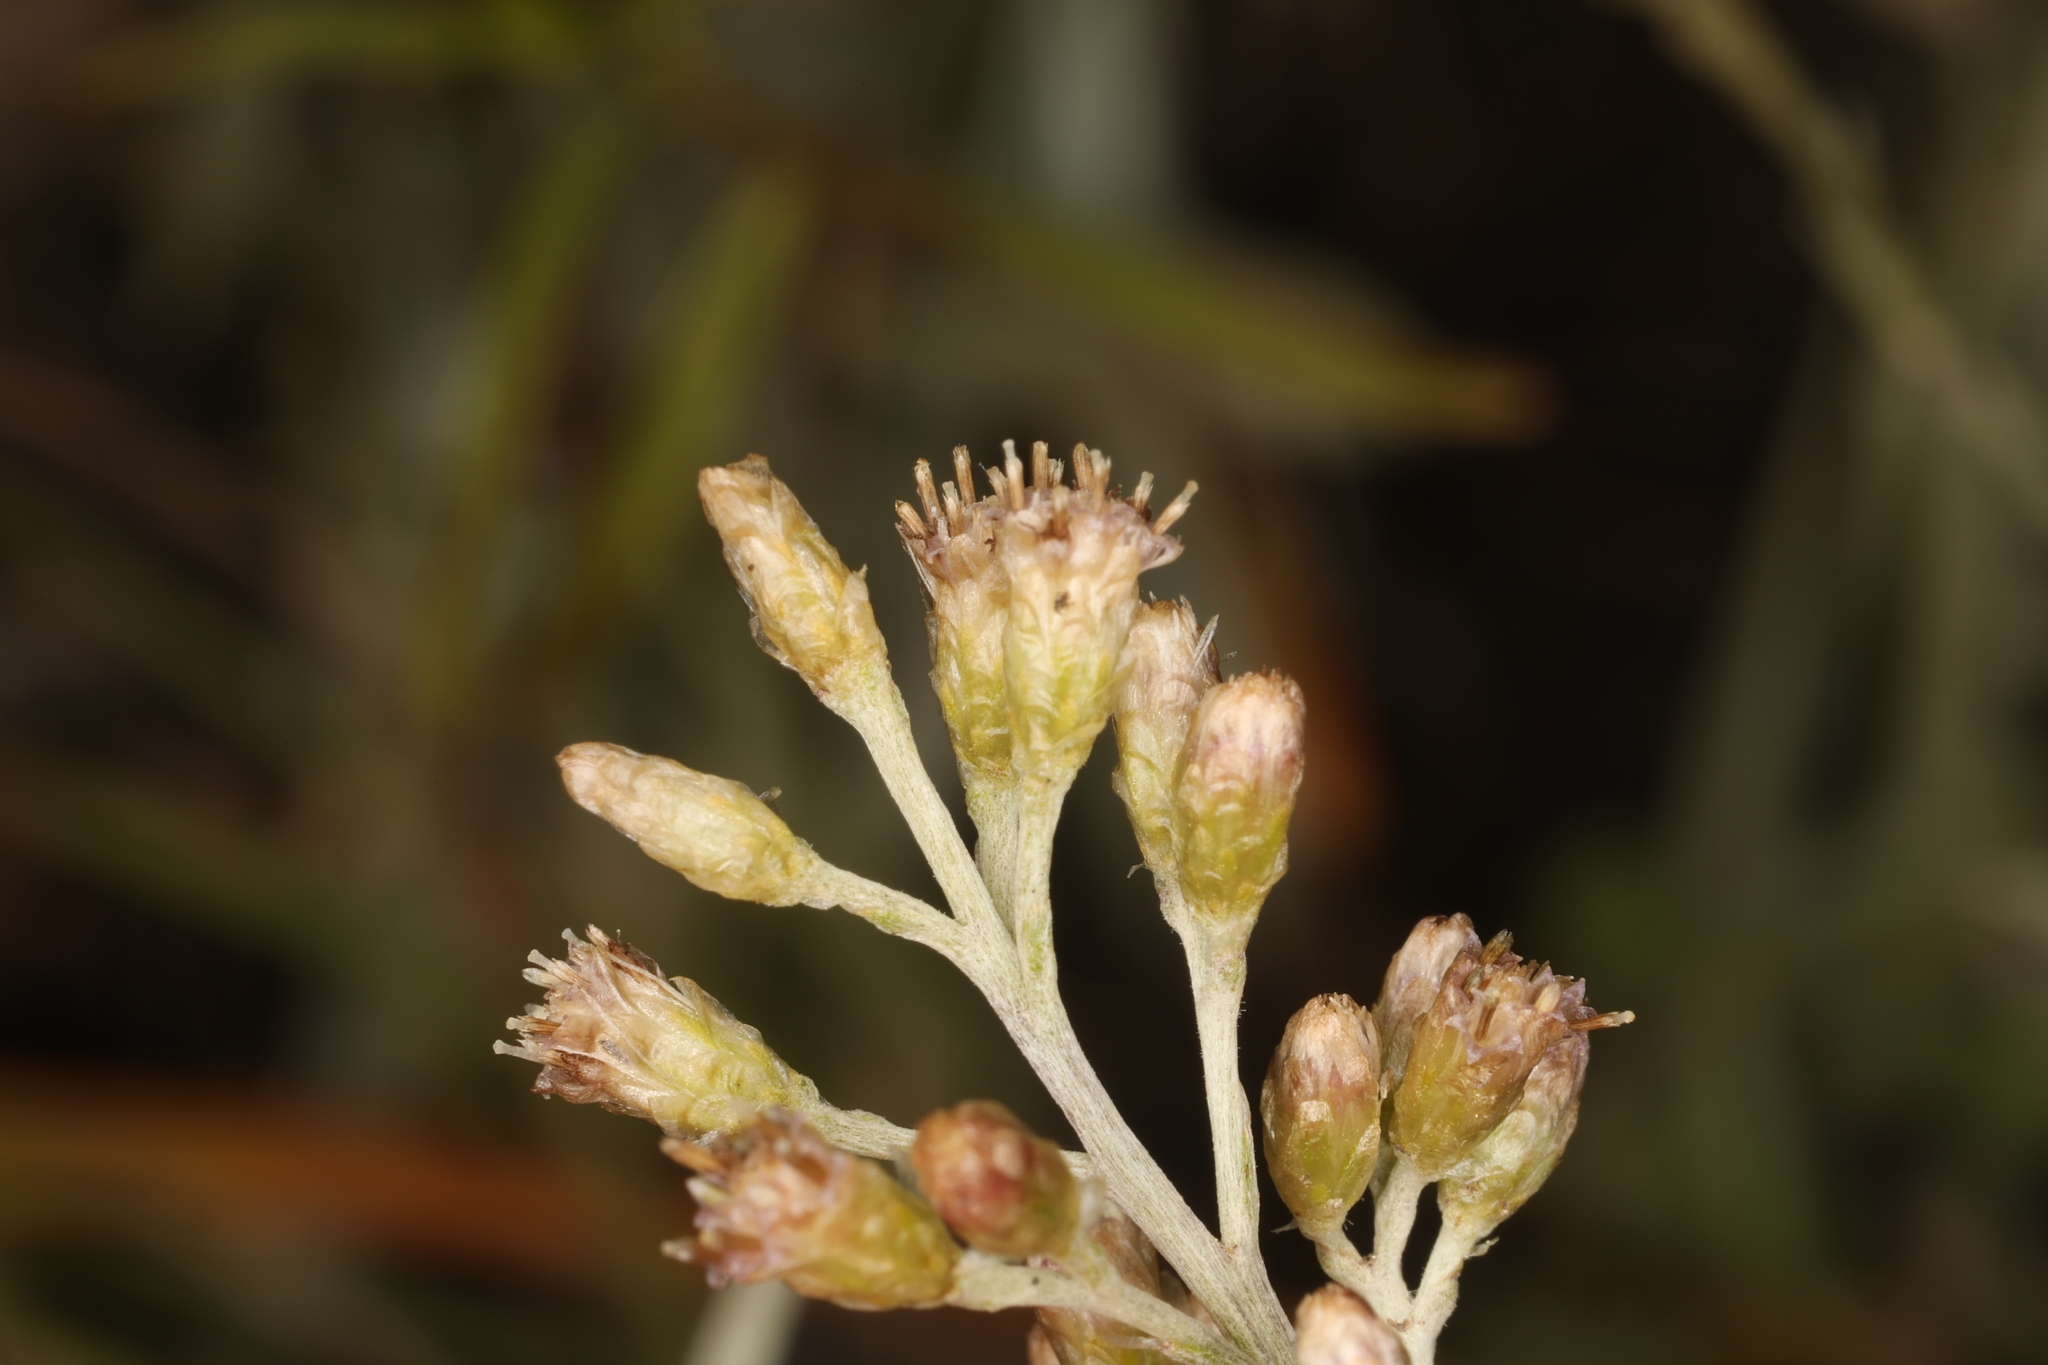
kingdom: Plantae
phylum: Tracheophyta
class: Magnoliopsida
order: Asterales
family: Asteraceae
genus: Antennaria
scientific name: Antennaria luzuloides
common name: Rush pussytoes
